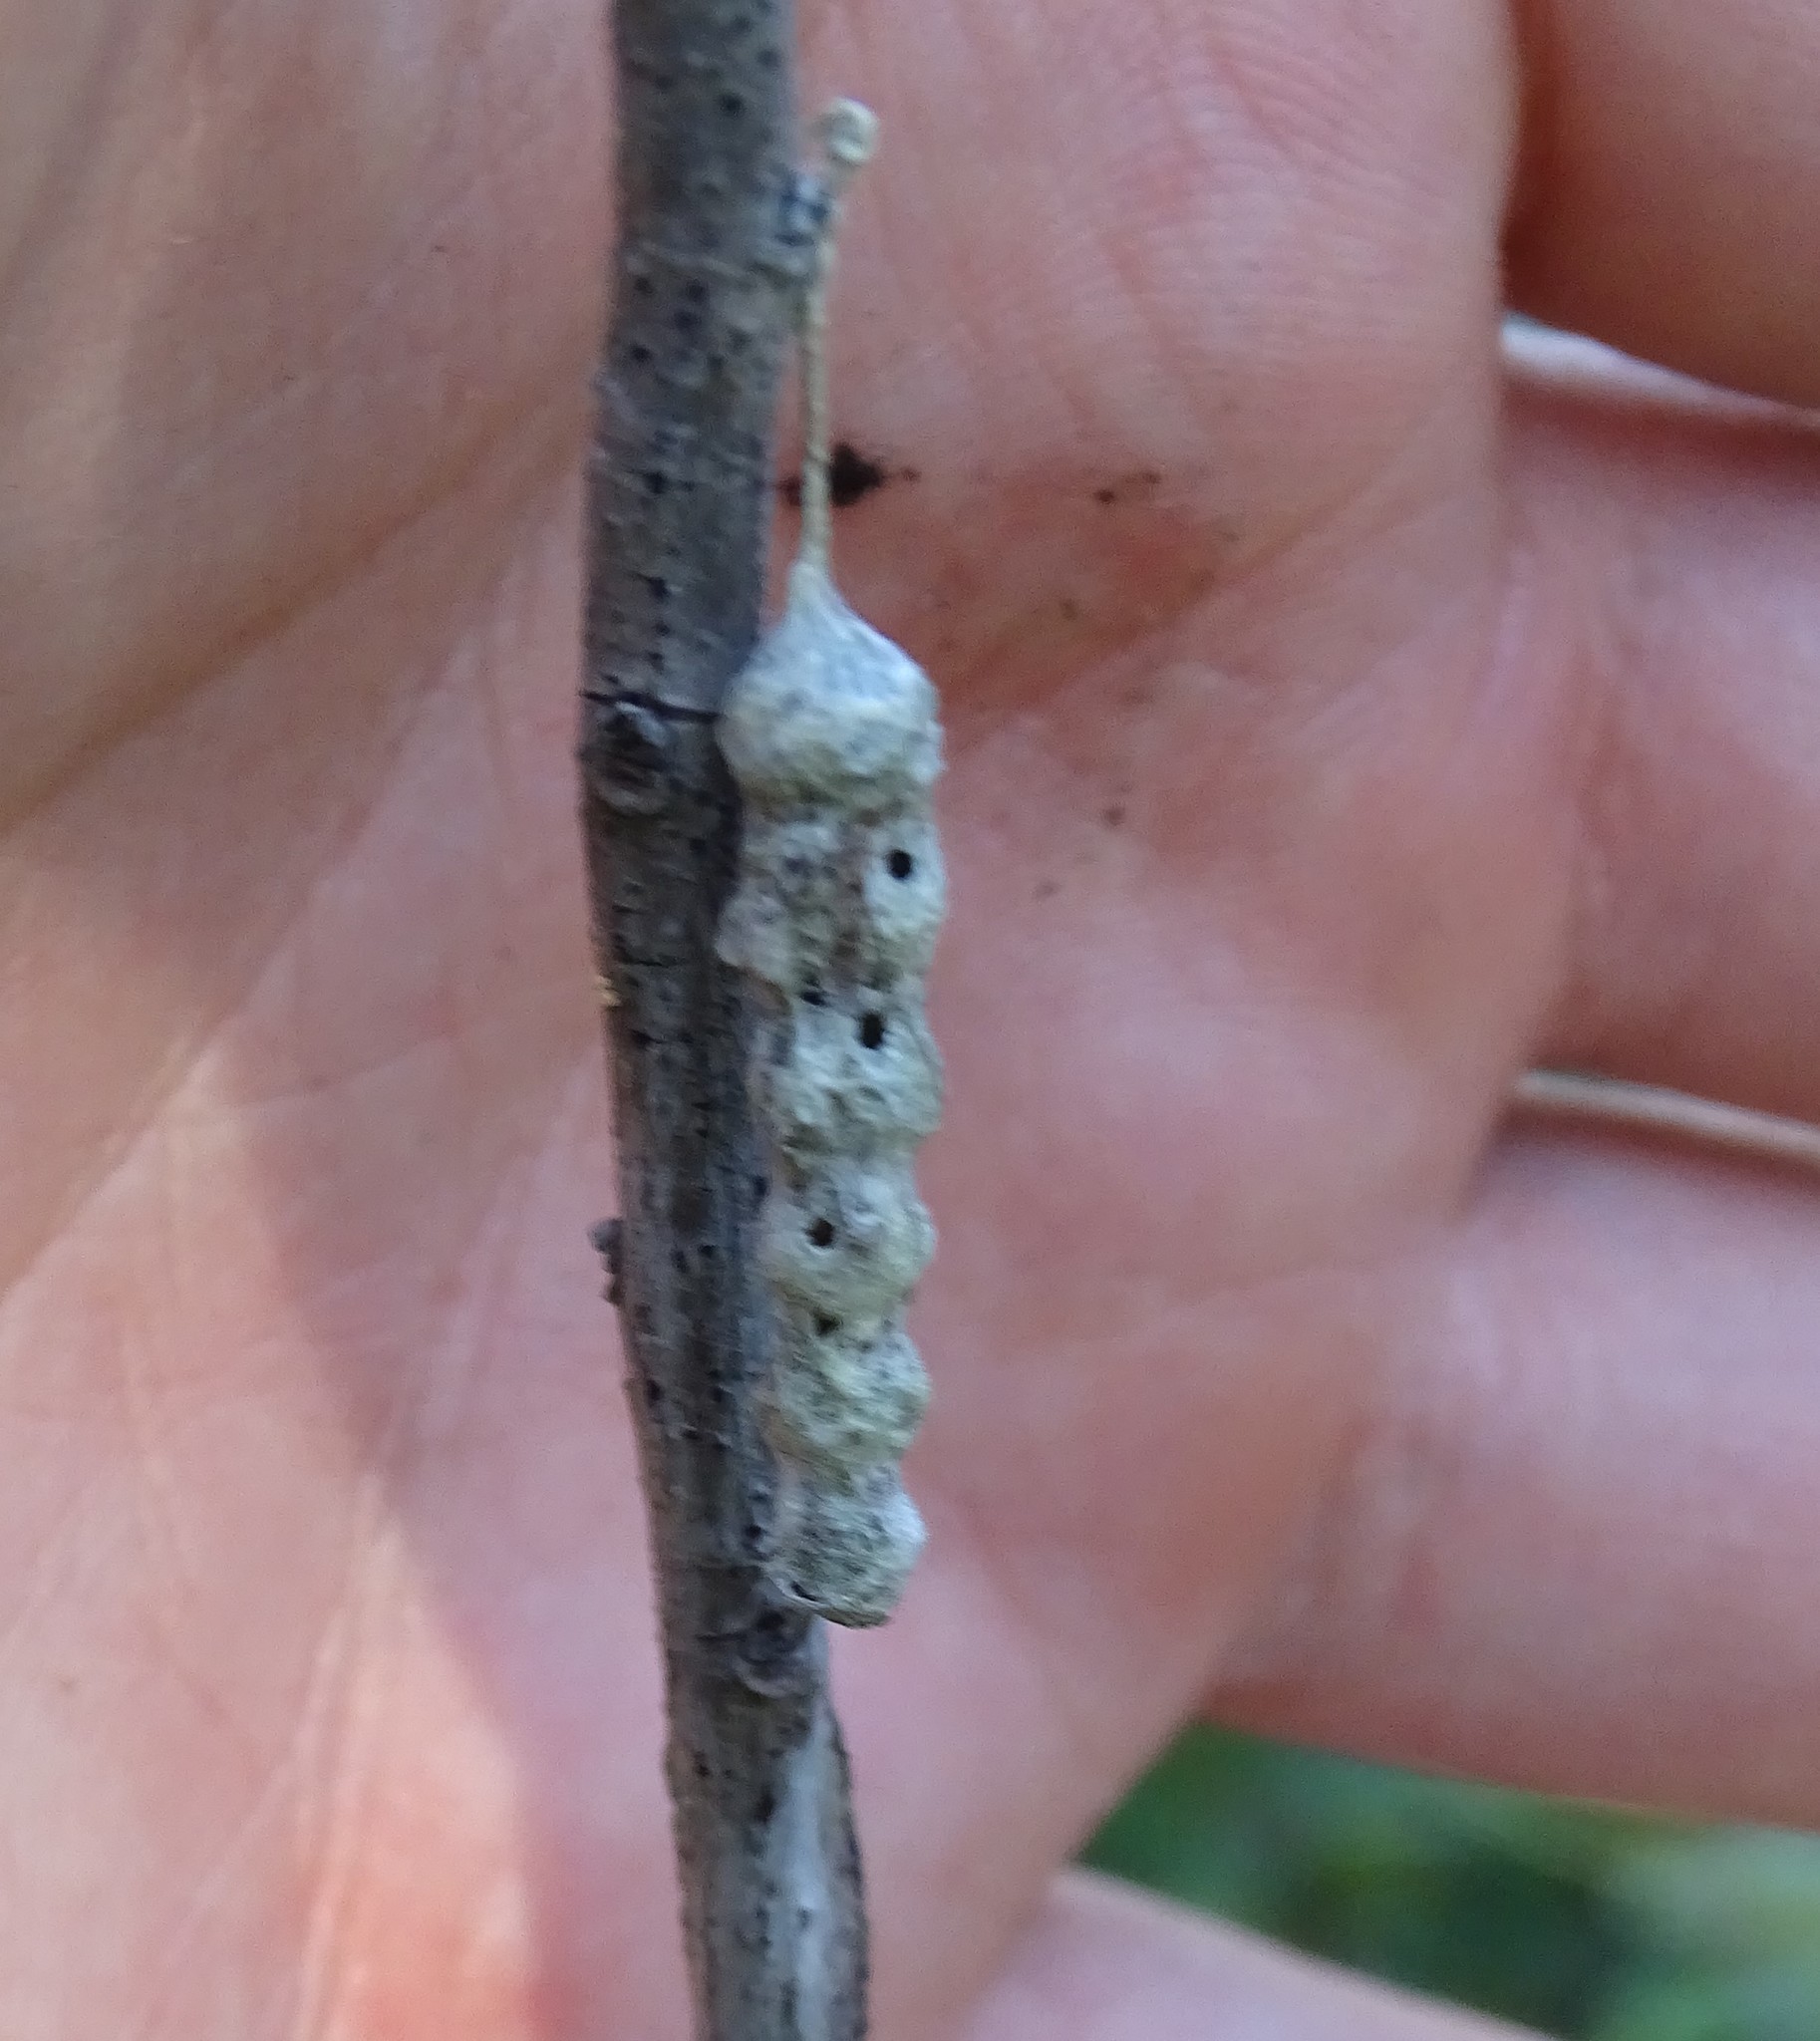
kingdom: Animalia
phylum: Arthropoda
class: Arachnida
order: Araneae
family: Araneidae
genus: Mecynogea
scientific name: Mecynogea lemniscata
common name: Orb weavers
